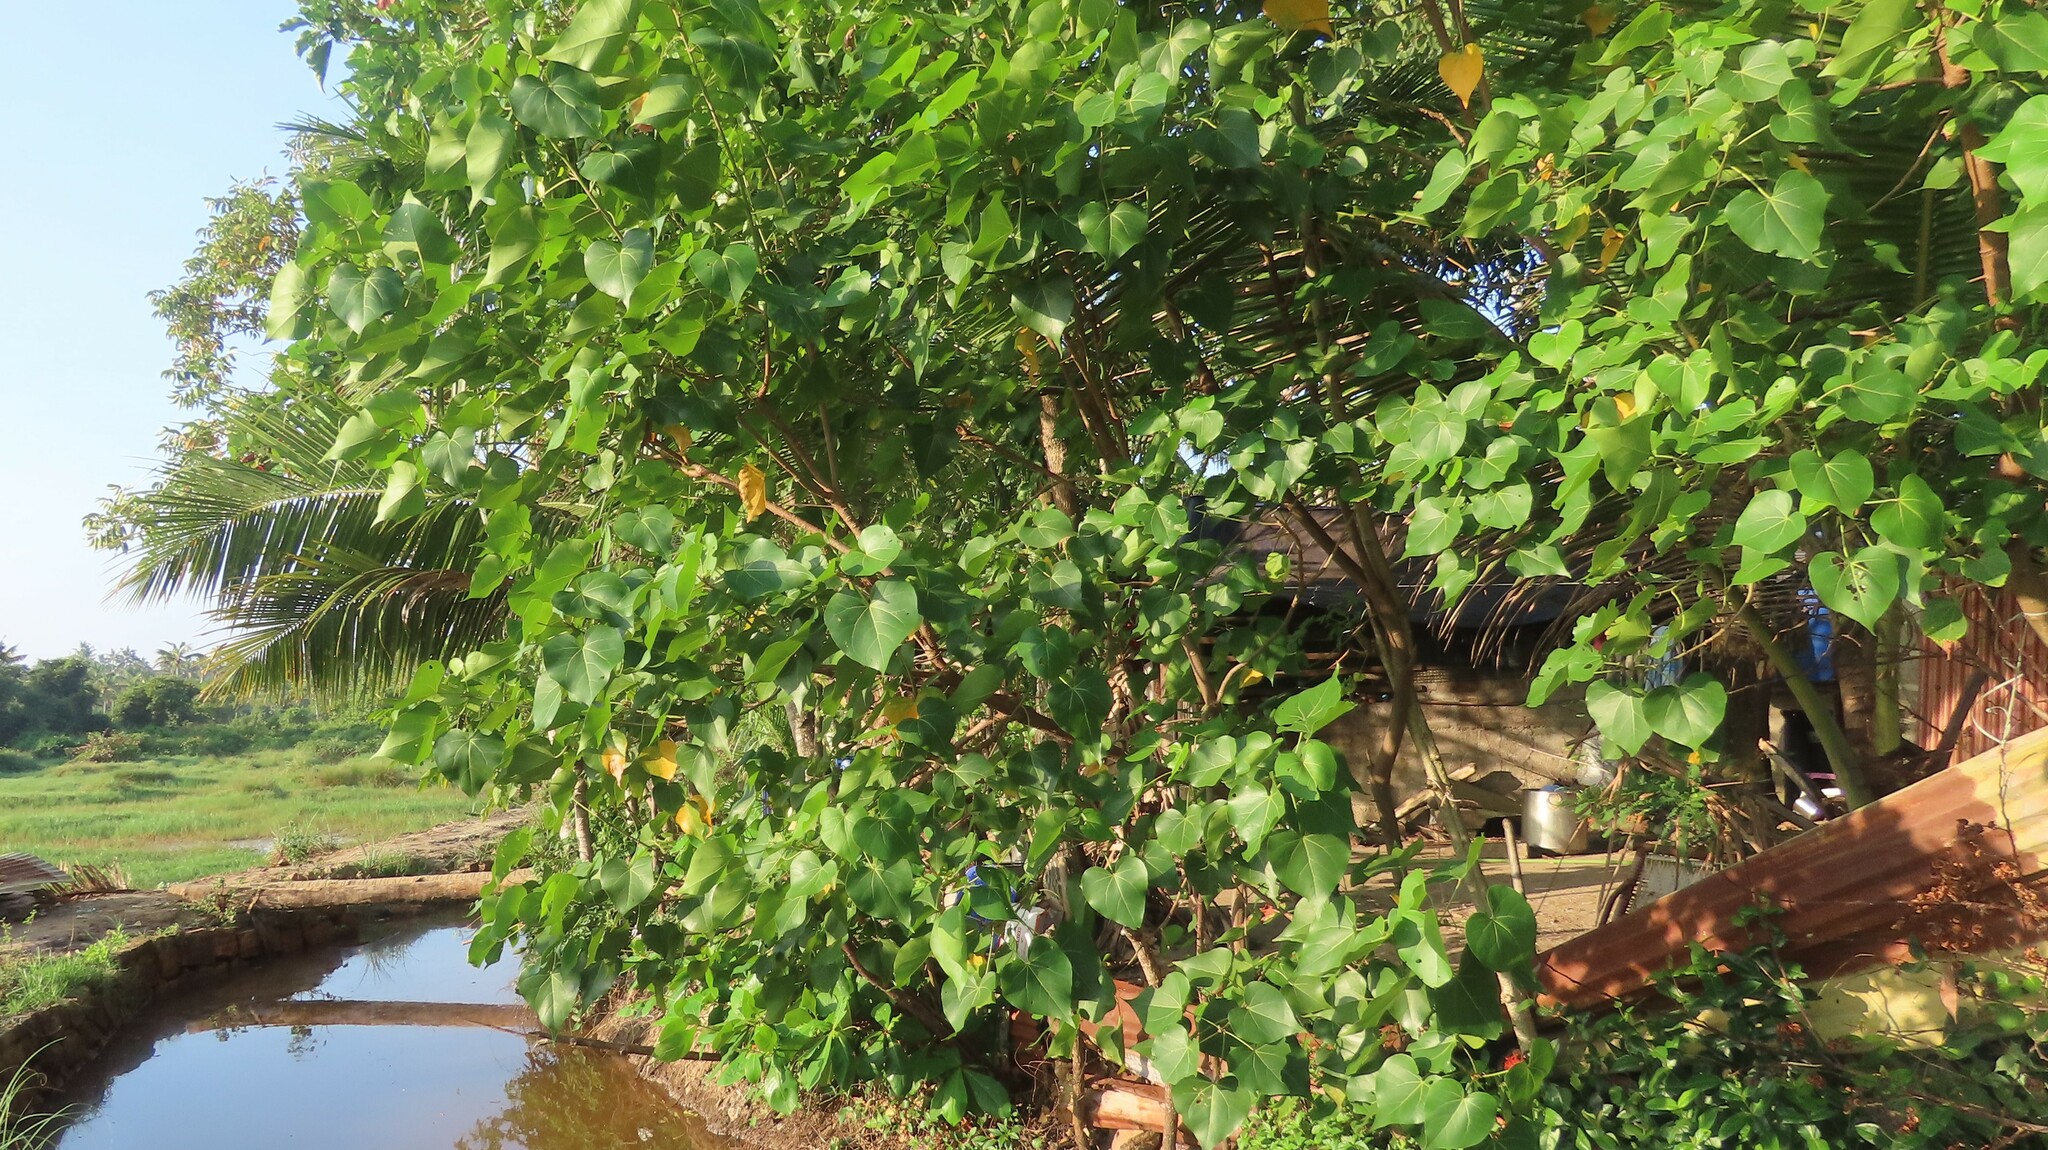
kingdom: Plantae
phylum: Tracheophyta
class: Magnoliopsida
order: Malvales
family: Malvaceae
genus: Thespesia
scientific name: Thespesia populnea
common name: Seaside mahoe
